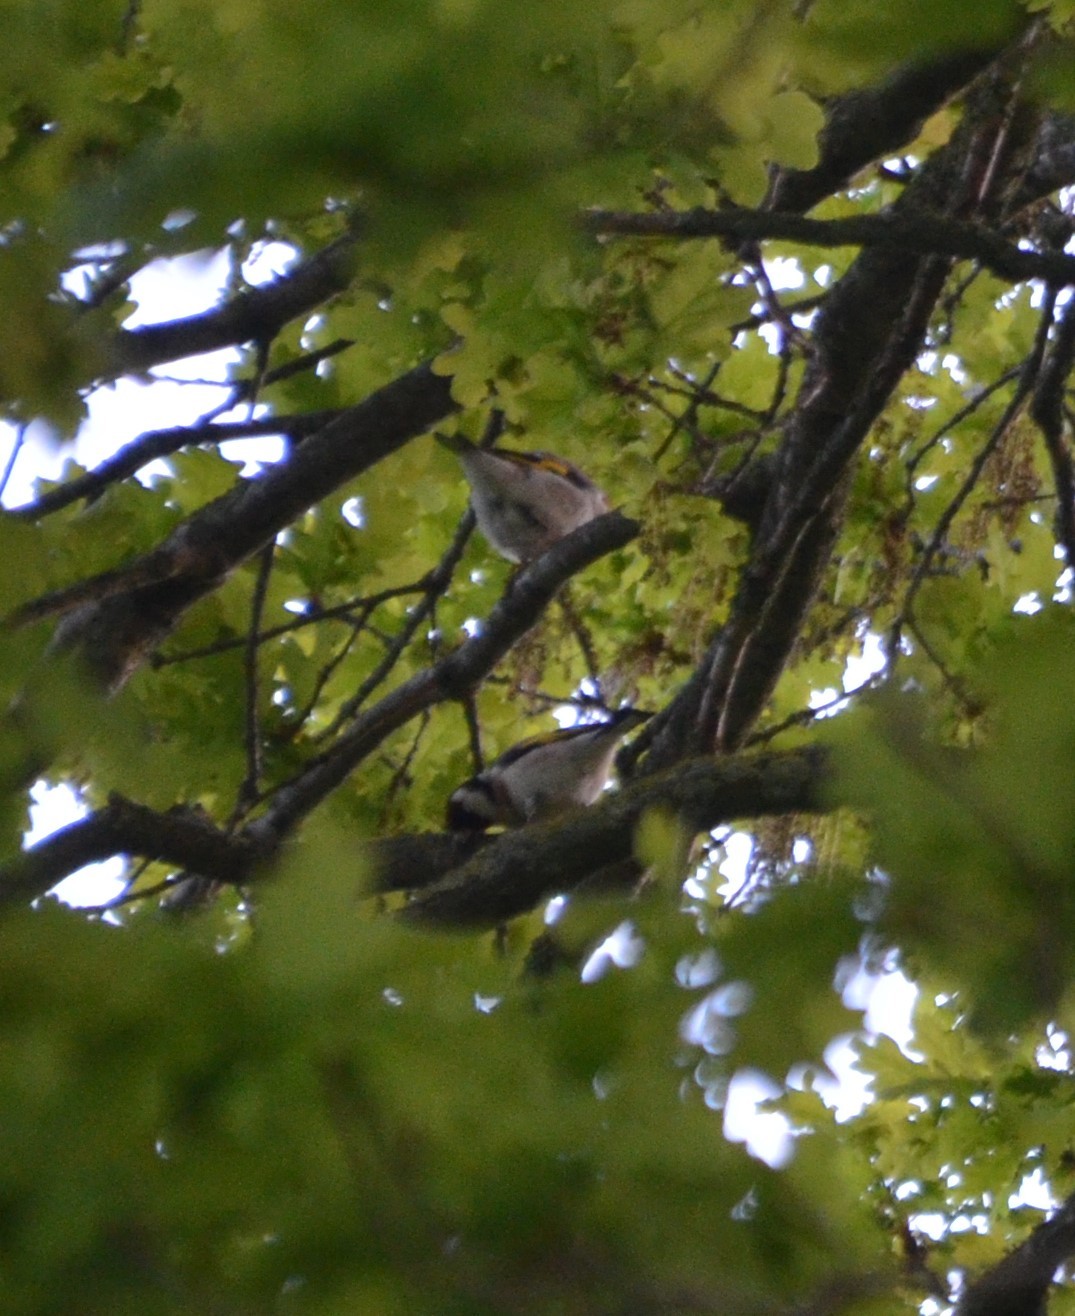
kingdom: Animalia
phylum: Chordata
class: Aves
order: Passeriformes
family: Fringillidae
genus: Carduelis
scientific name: Carduelis carduelis
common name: European goldfinch
